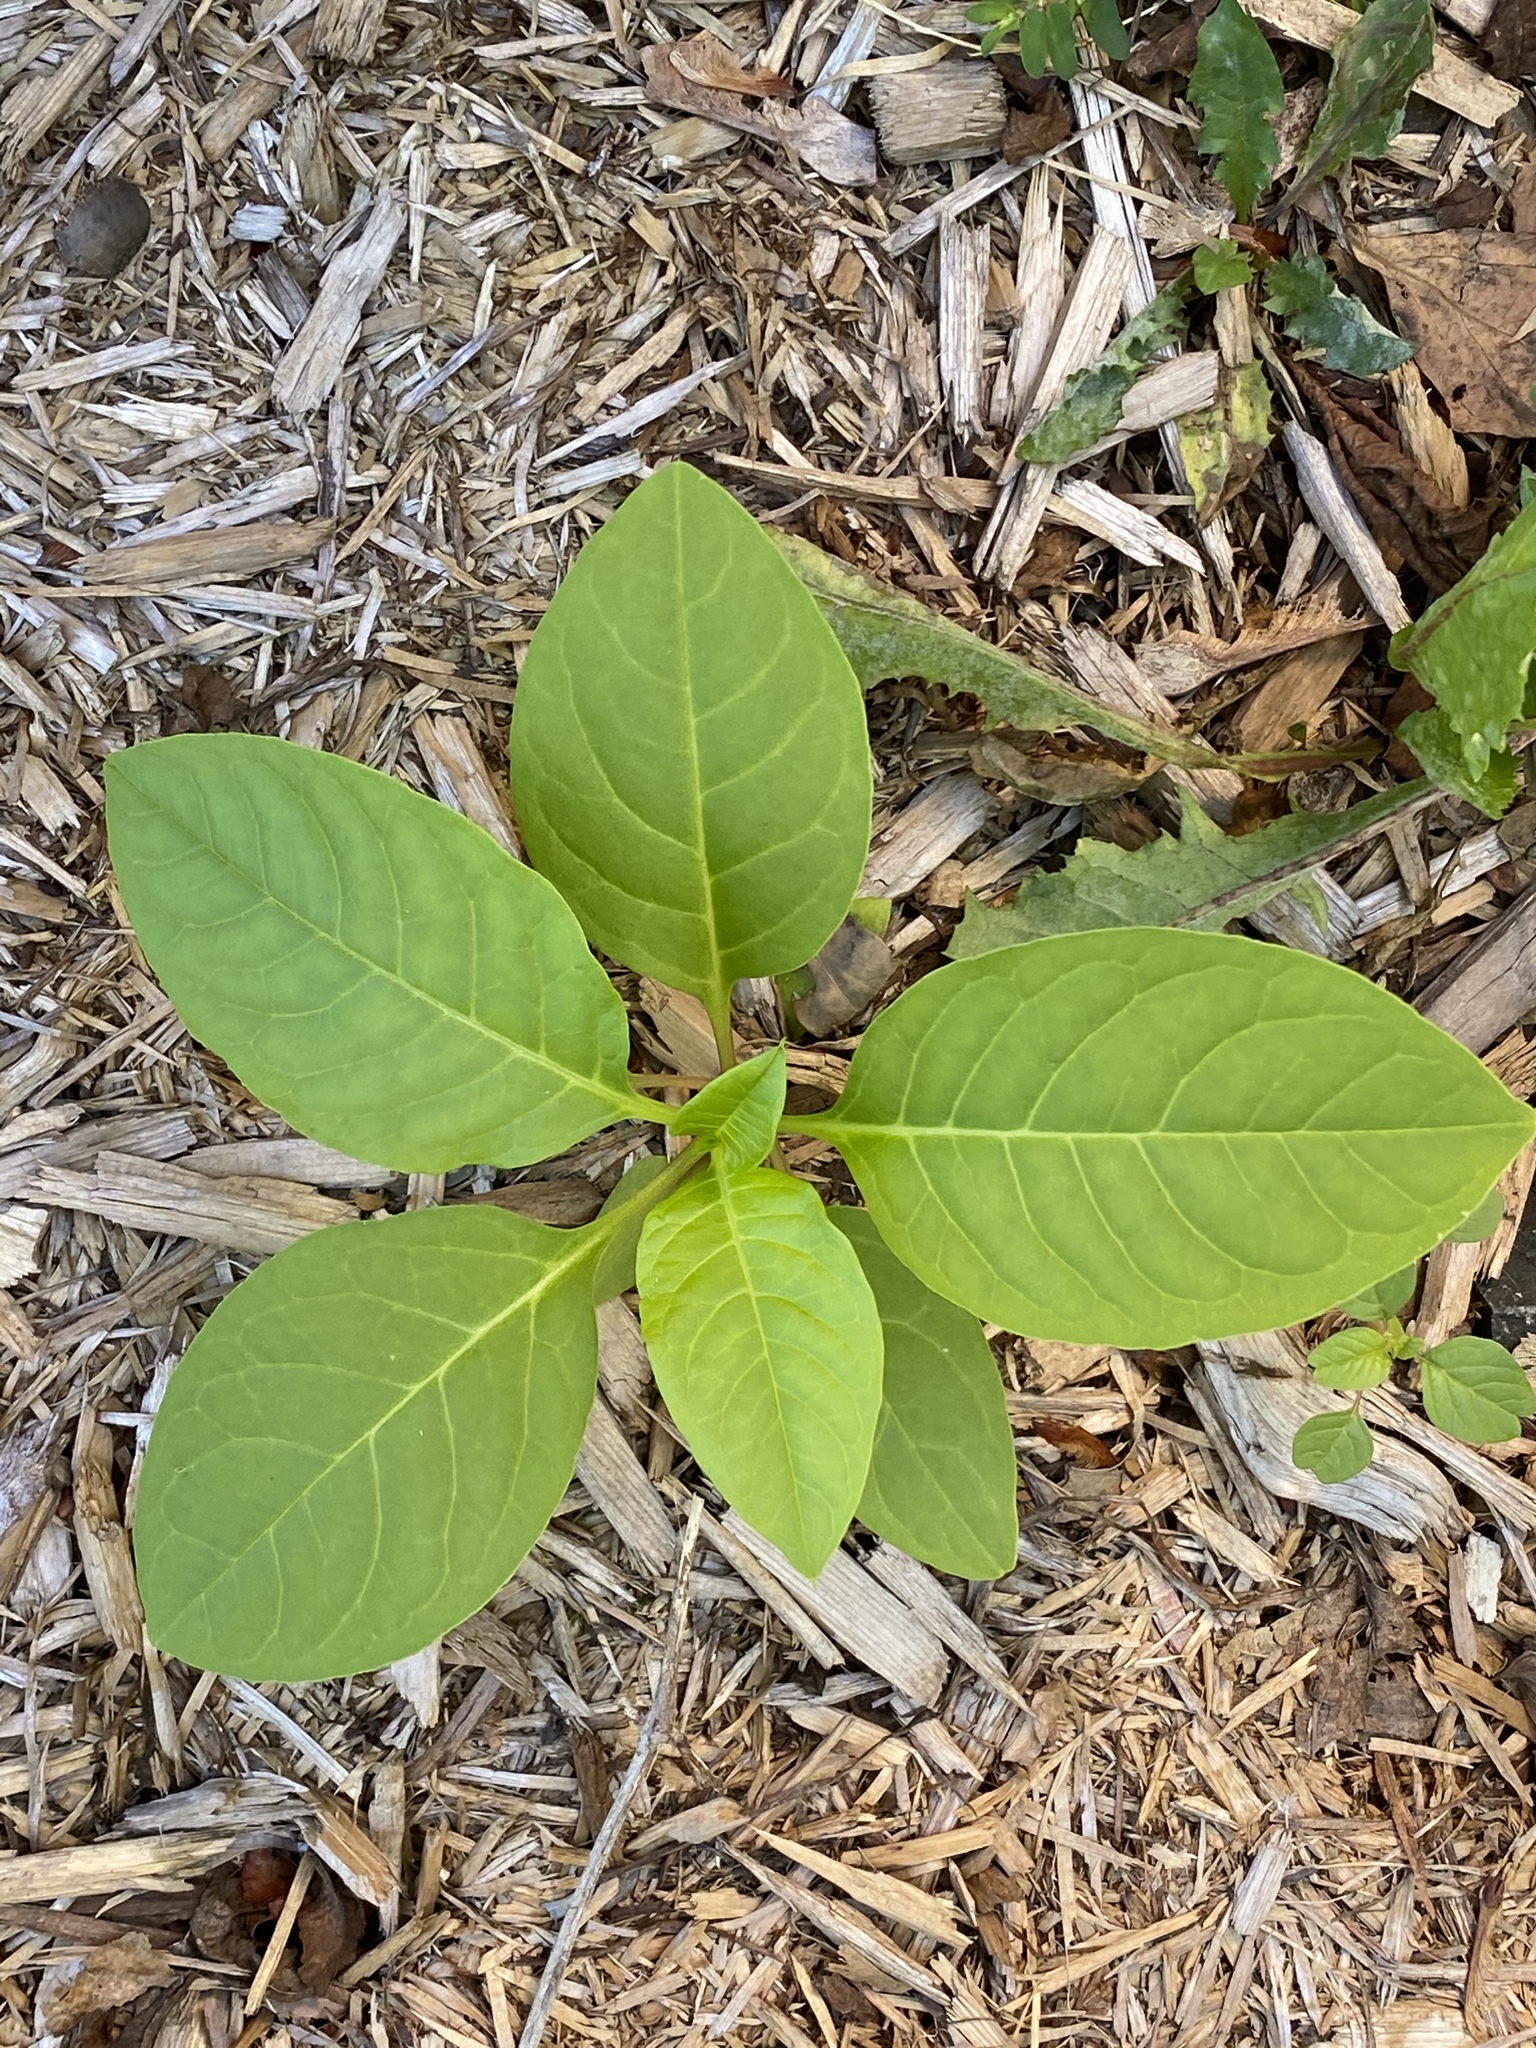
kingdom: Plantae
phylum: Tracheophyta
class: Magnoliopsida
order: Caryophyllales
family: Phytolaccaceae
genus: Phytolacca
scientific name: Phytolacca americana
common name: American pokeweed
